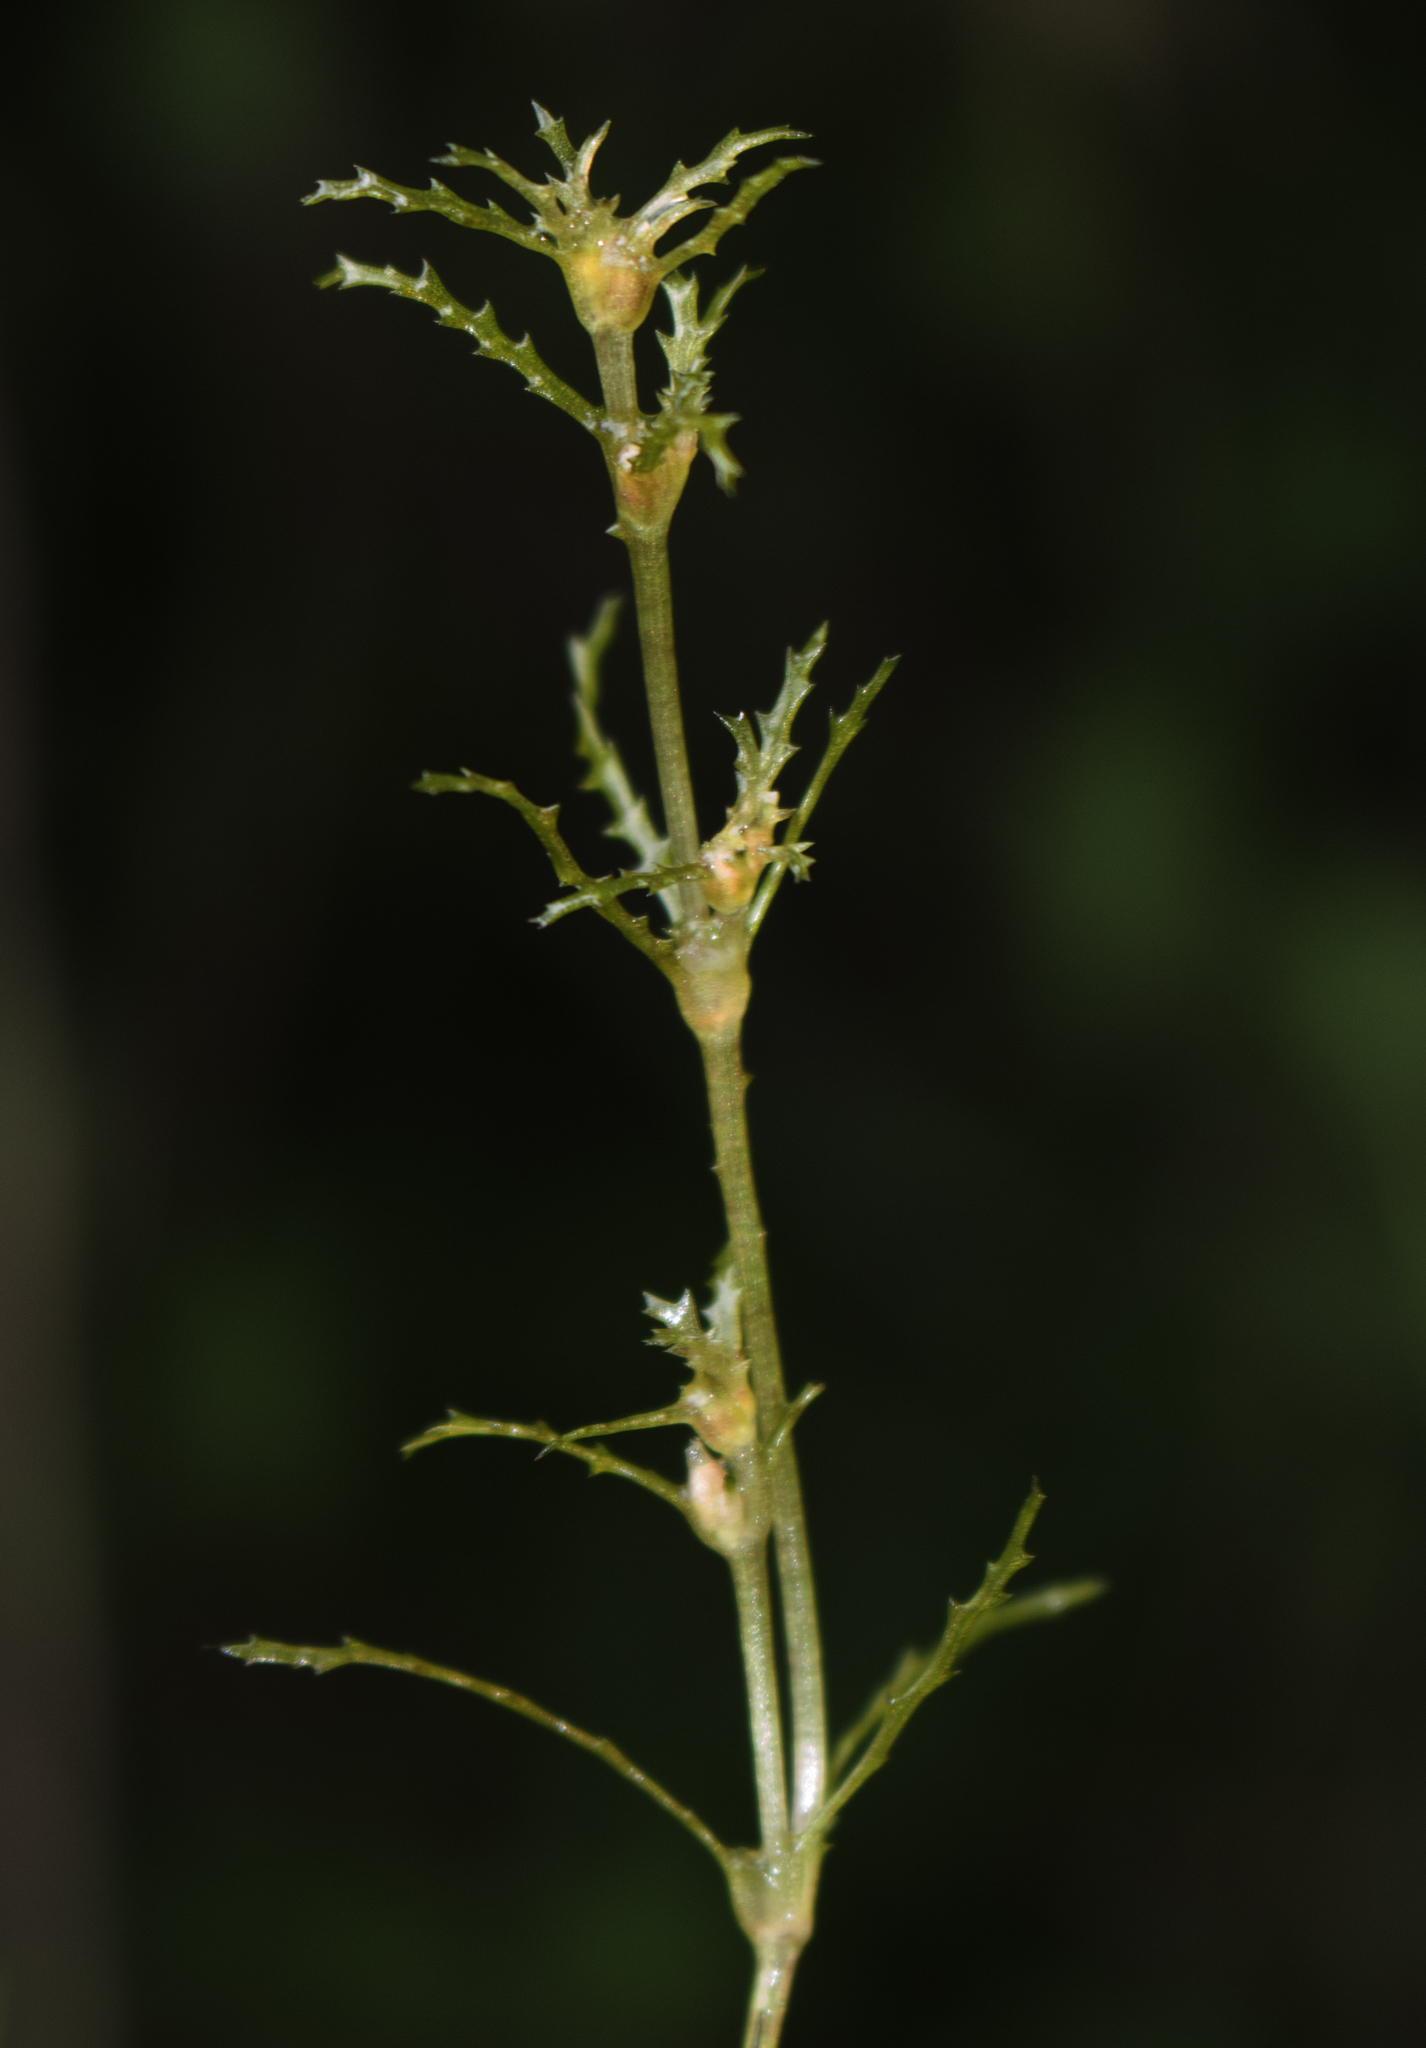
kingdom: Plantae
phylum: Tracheophyta
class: Liliopsida
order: Alismatales
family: Hydrocharitaceae
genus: Najas
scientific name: Najas marina
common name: Holly-leaved naiad
